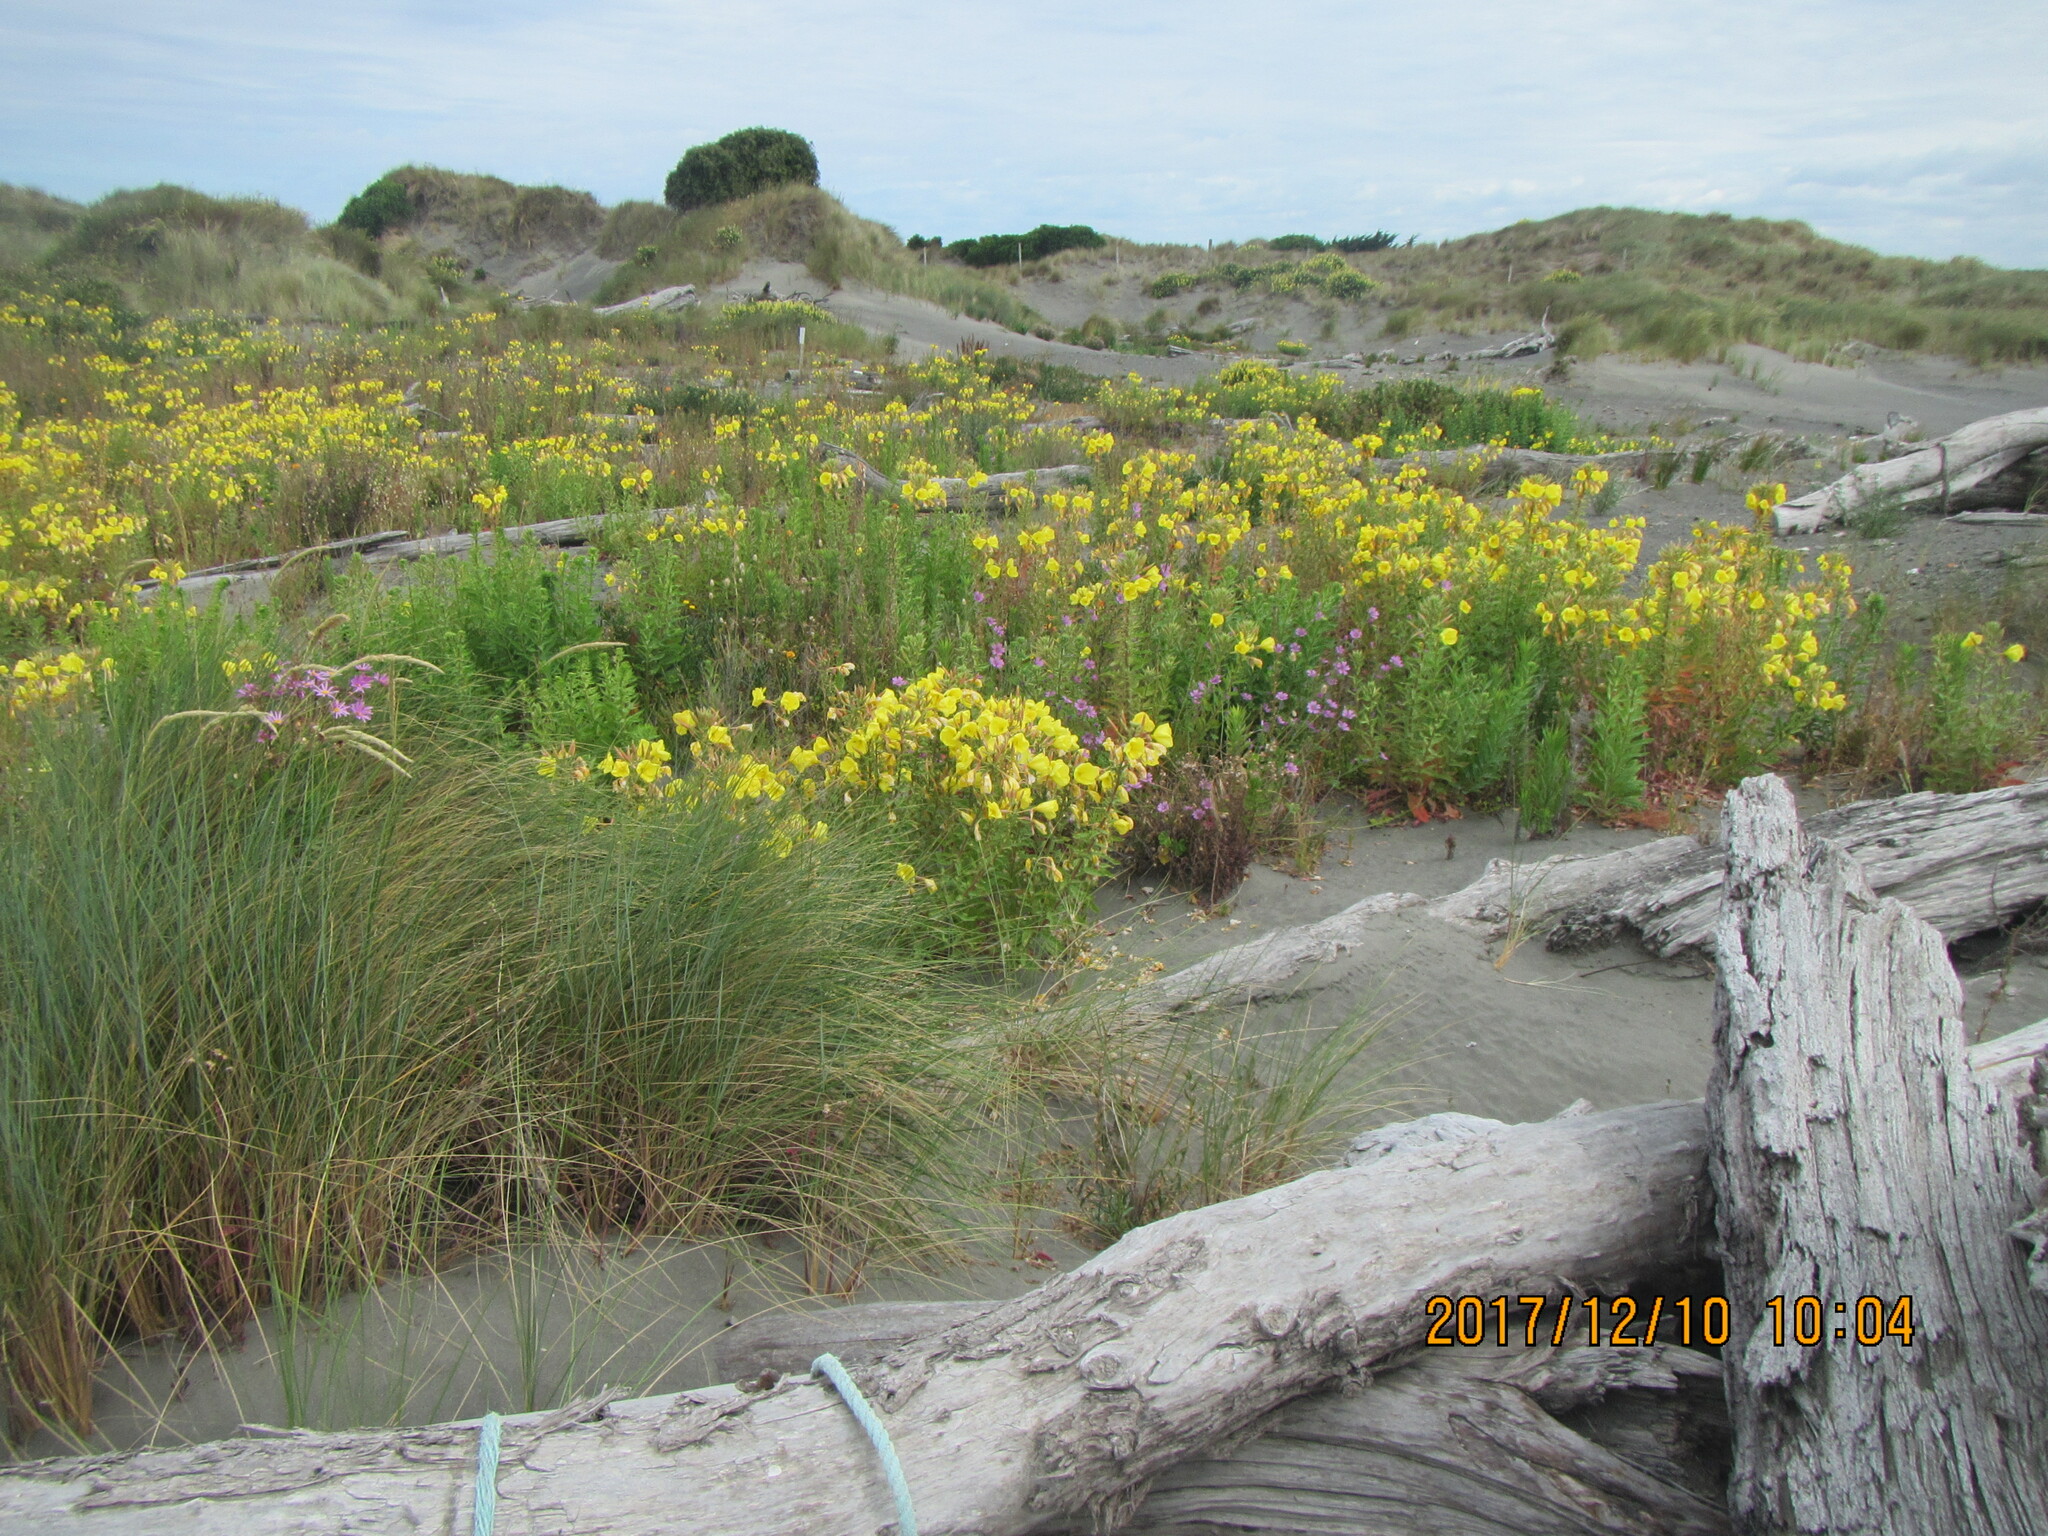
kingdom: Plantae
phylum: Tracheophyta
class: Magnoliopsida
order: Myrtales
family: Onagraceae
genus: Oenothera
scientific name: Oenothera glazioviana
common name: Large-flowered evening-primrose
